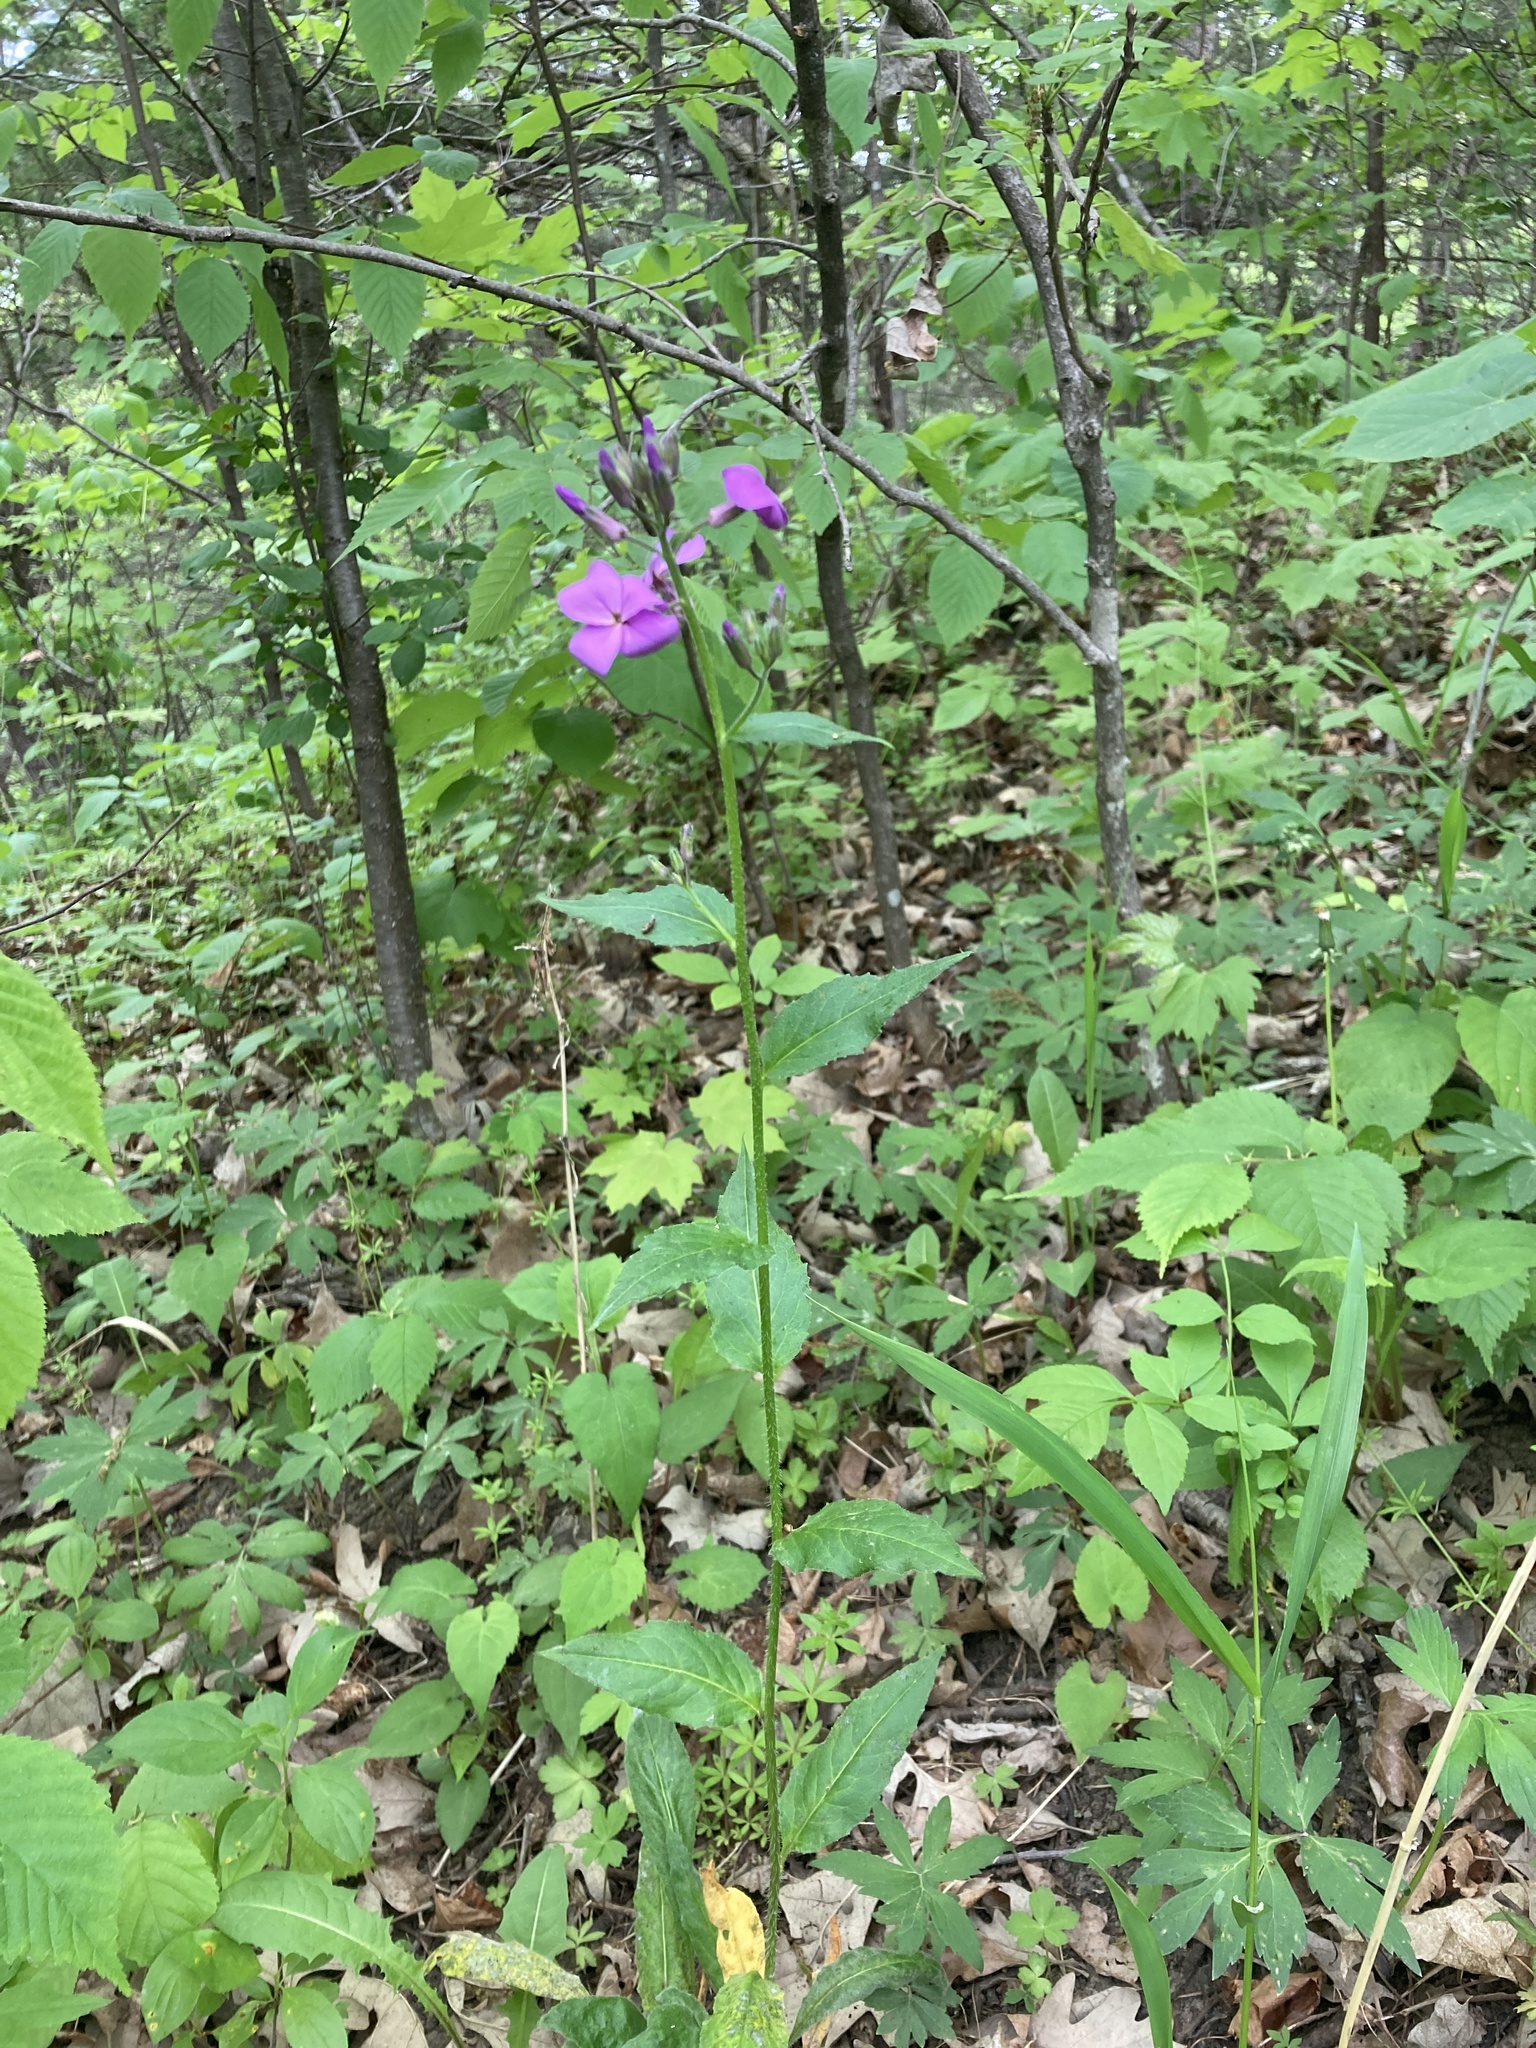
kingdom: Plantae
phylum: Tracheophyta
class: Magnoliopsida
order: Brassicales
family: Brassicaceae
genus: Hesperis
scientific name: Hesperis matronalis
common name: Dame's-violet
